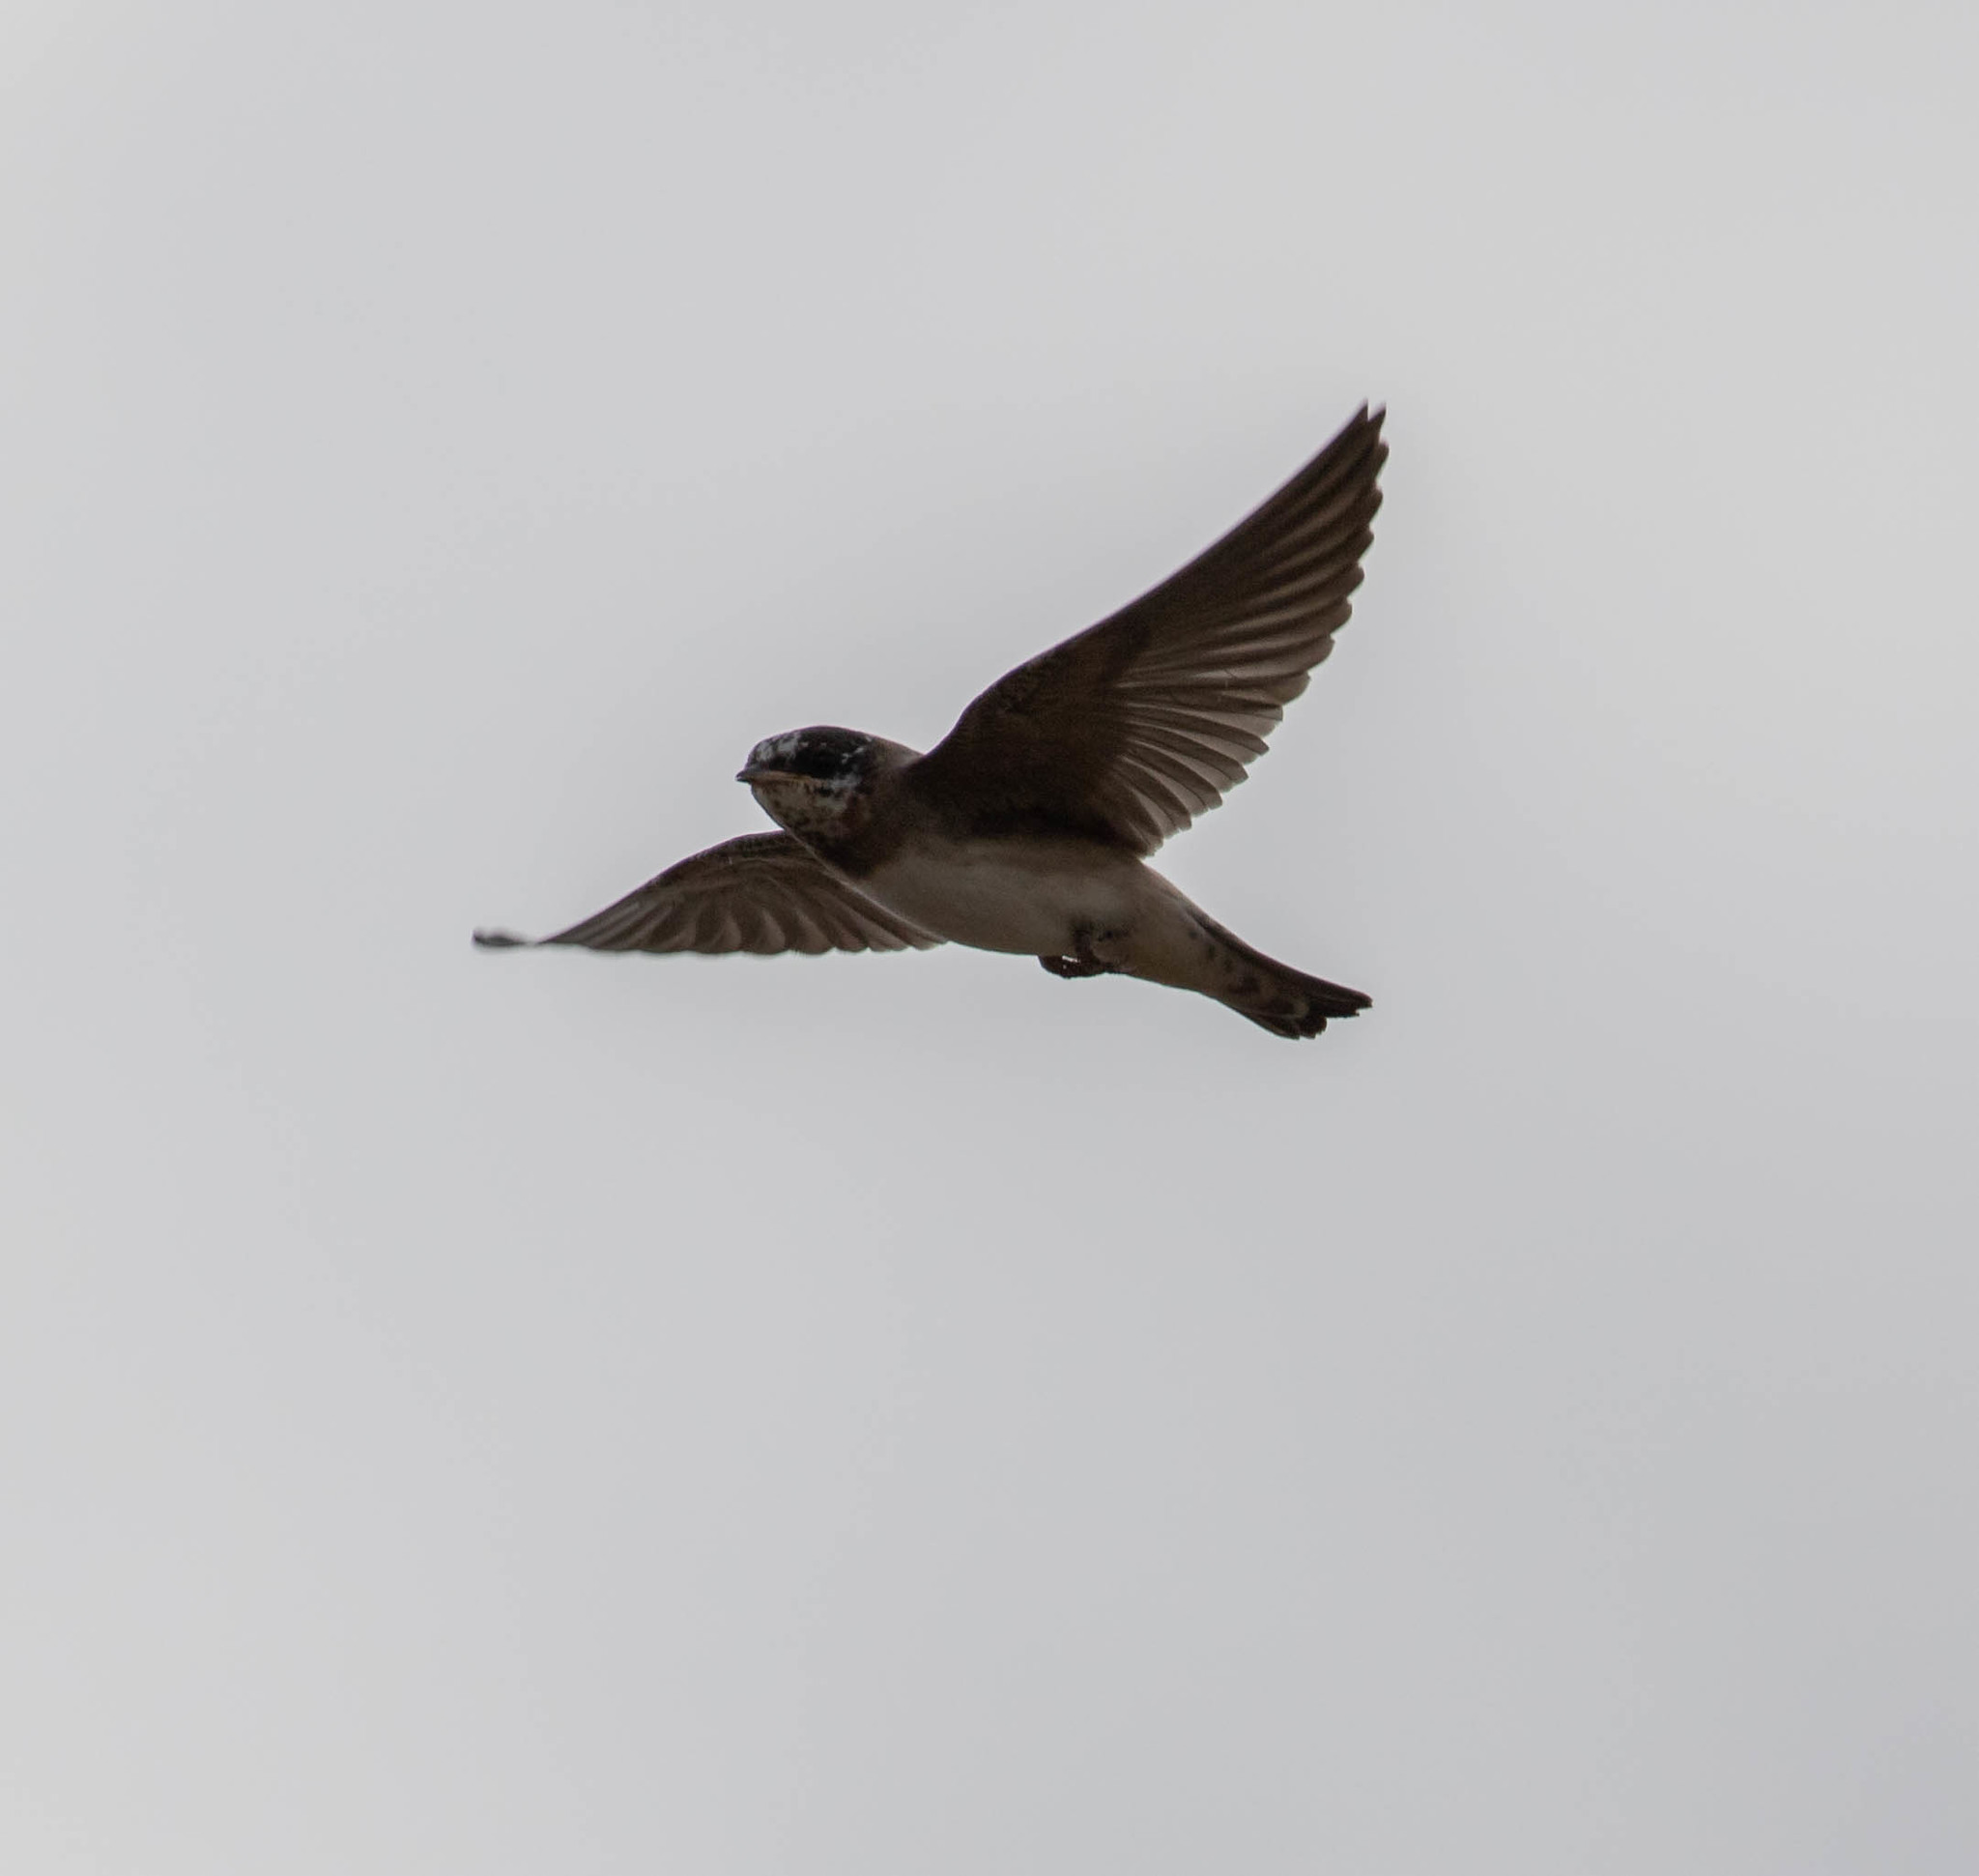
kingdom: Animalia
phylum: Chordata
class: Aves
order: Passeriformes
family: Hirundinidae
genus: Petrochelidon
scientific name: Petrochelidon pyrrhonota
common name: American cliff swallow
